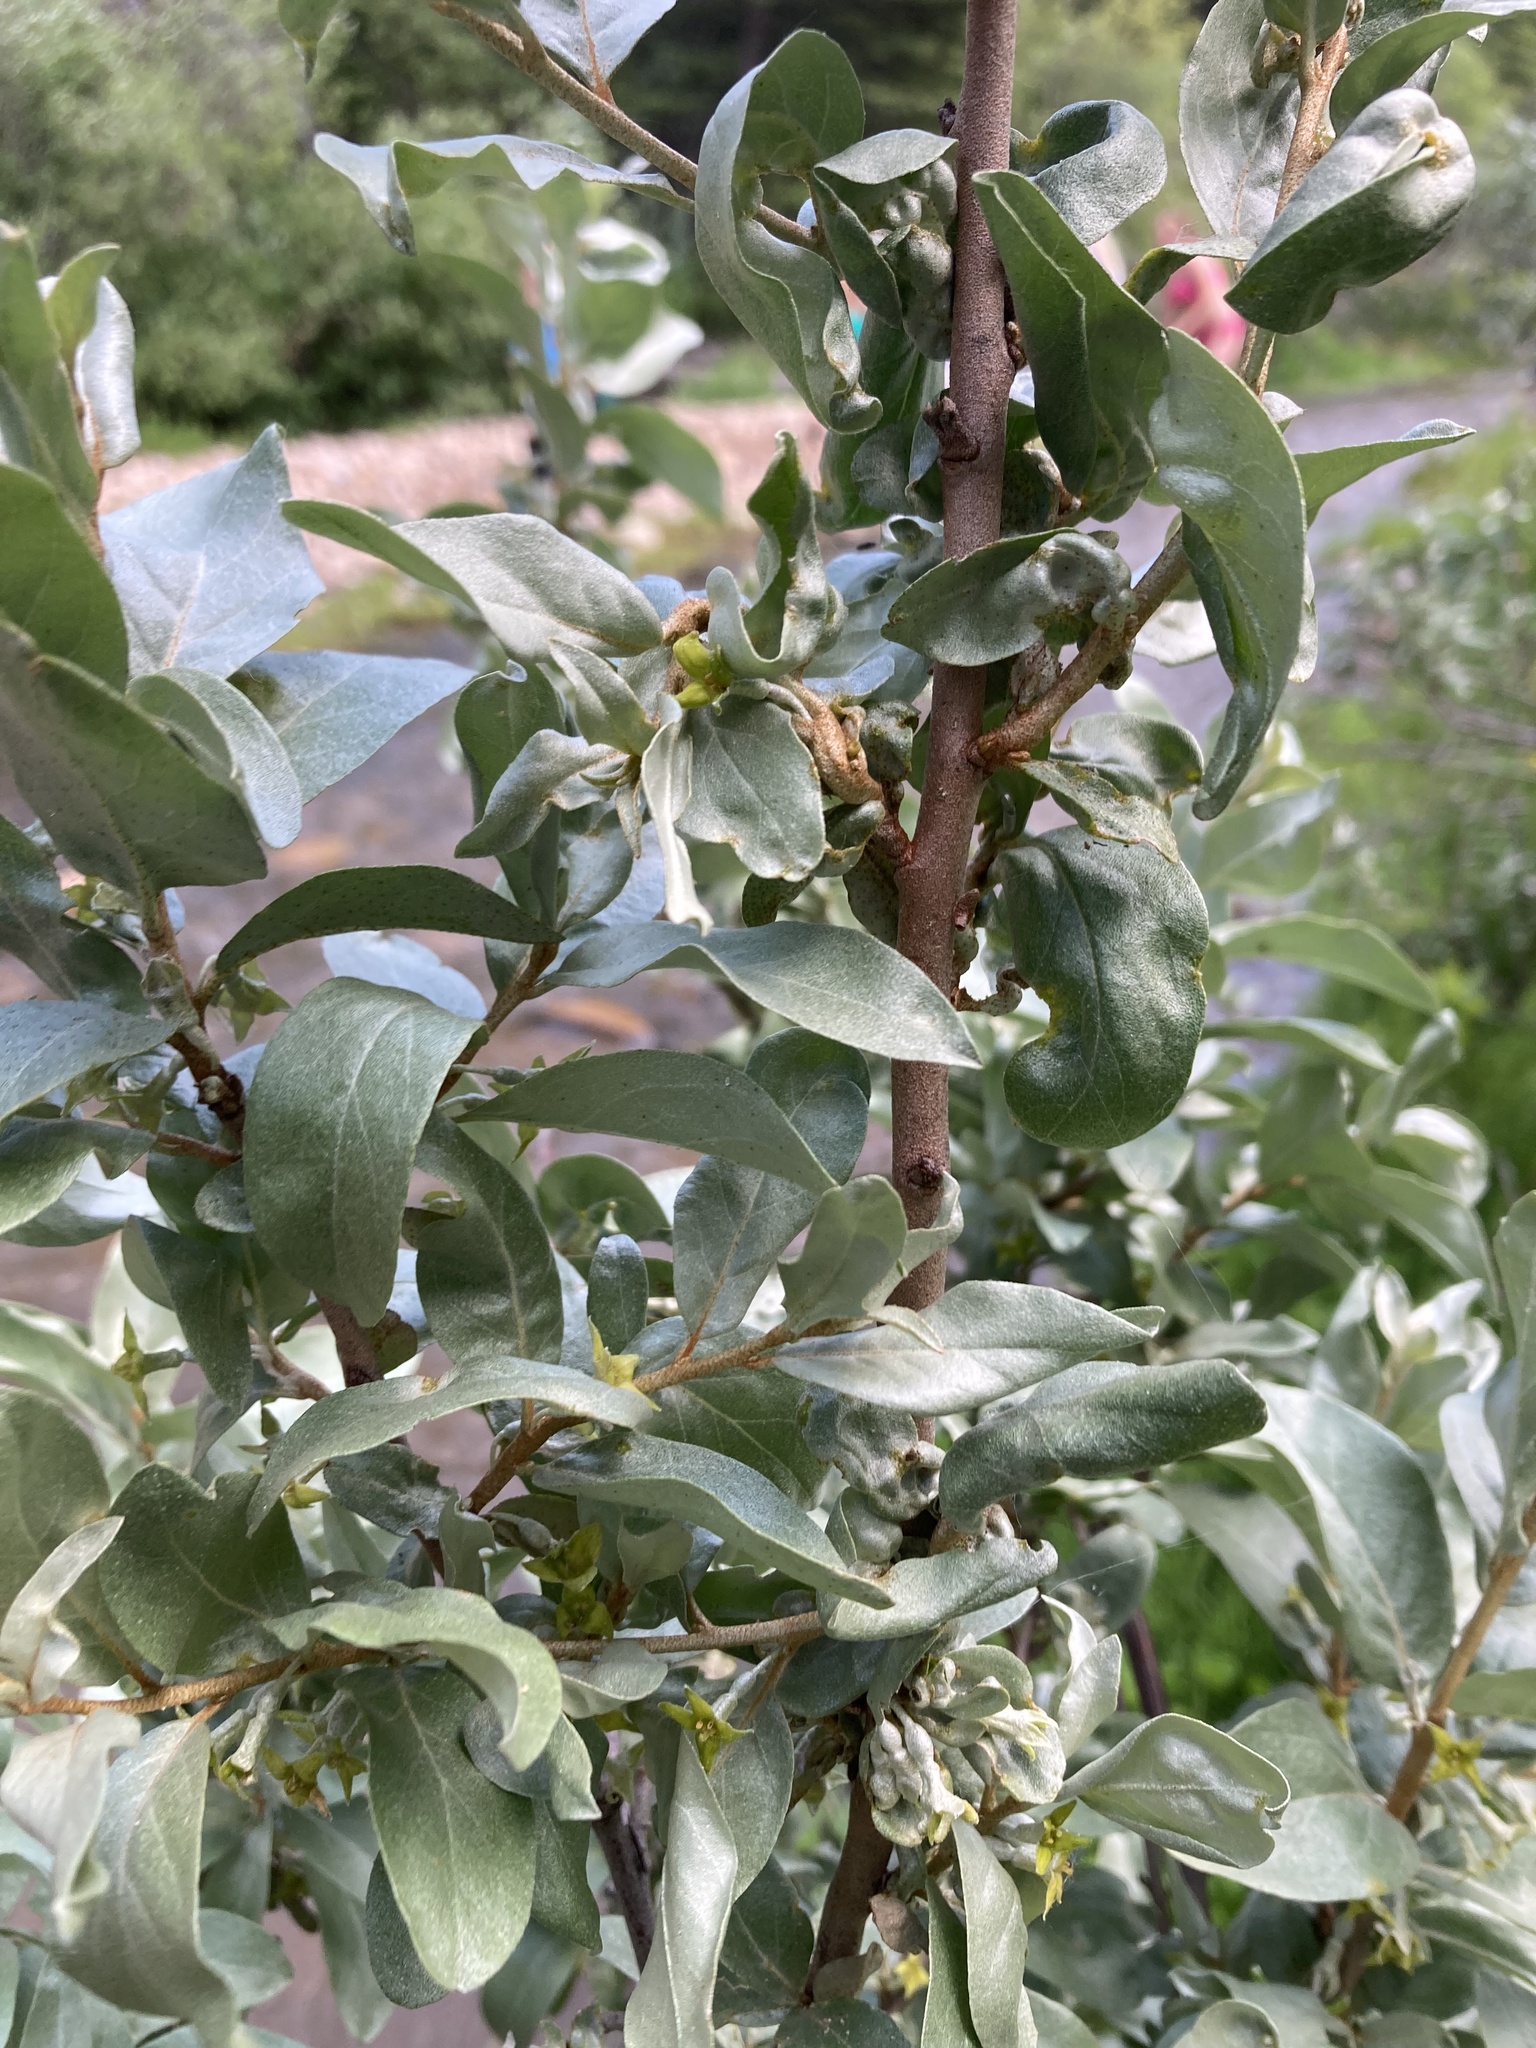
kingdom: Plantae
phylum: Tracheophyta
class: Magnoliopsida
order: Rosales
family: Elaeagnaceae
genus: Elaeagnus
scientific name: Elaeagnus commutata
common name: Silverberry
